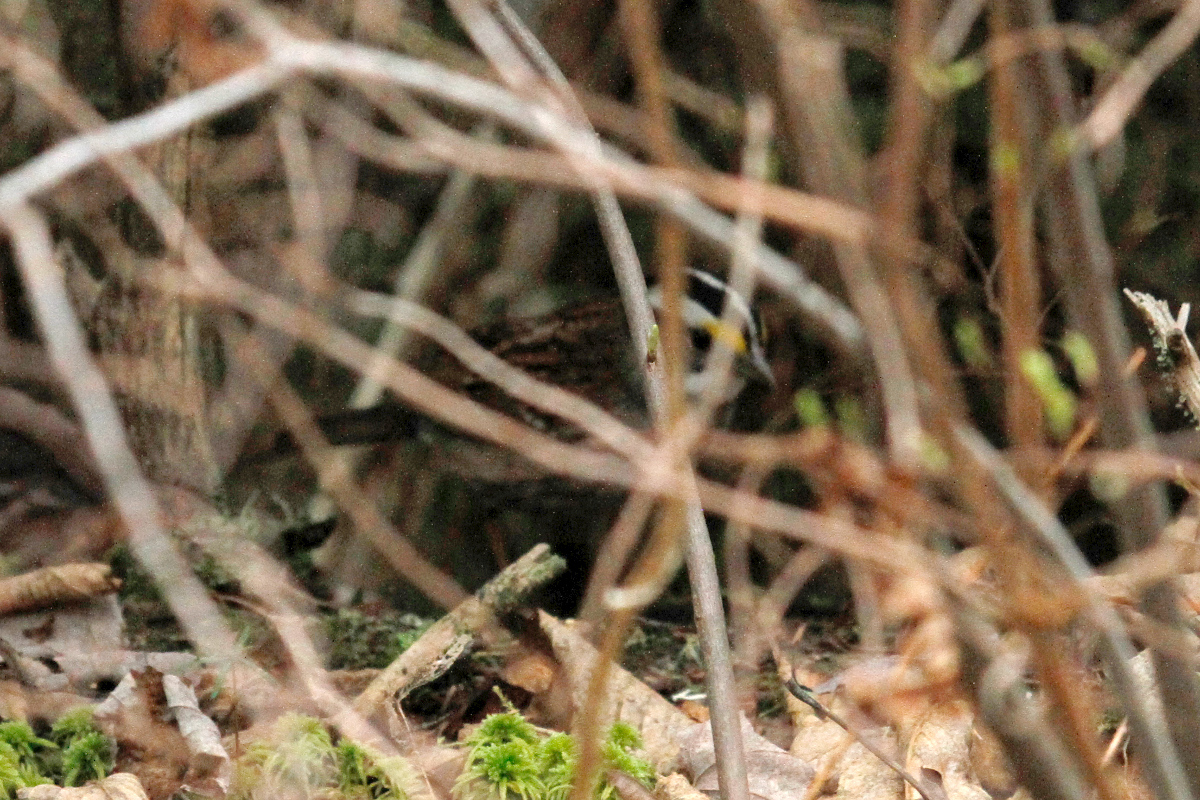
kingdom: Animalia
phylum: Chordata
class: Aves
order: Passeriformes
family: Passerellidae
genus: Zonotrichia
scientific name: Zonotrichia albicollis
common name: White-throated sparrow
